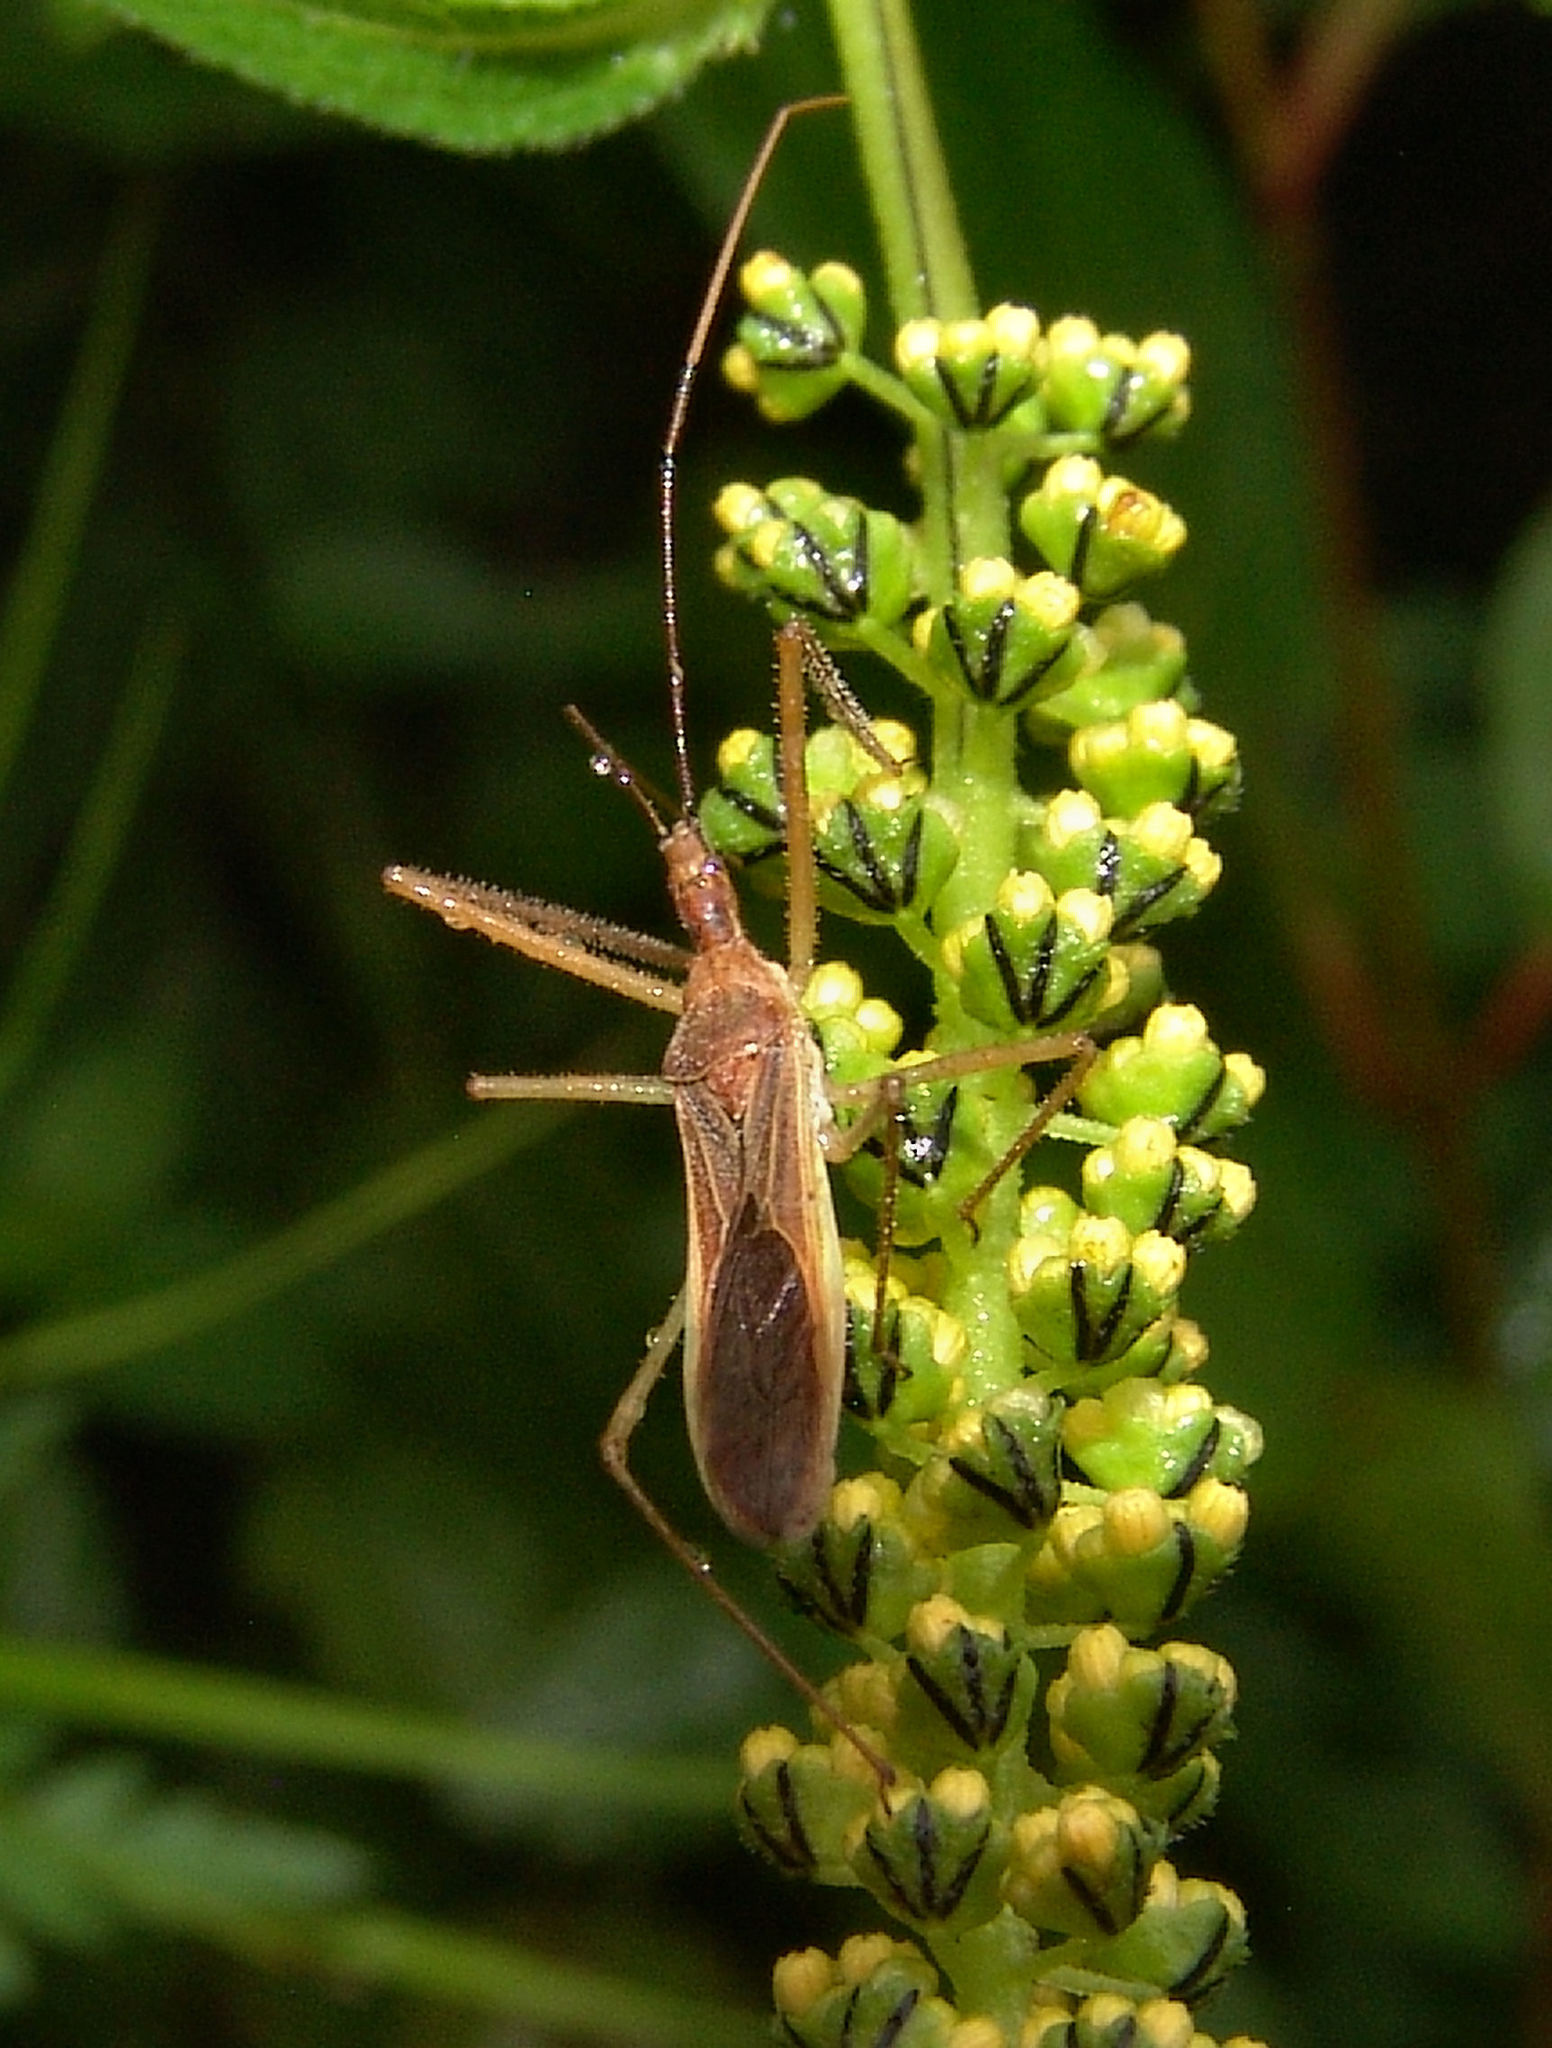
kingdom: Animalia
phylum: Arthropoda
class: Insecta
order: Hemiptera
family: Reduviidae
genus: Zelus
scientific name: Zelus cervicalis
